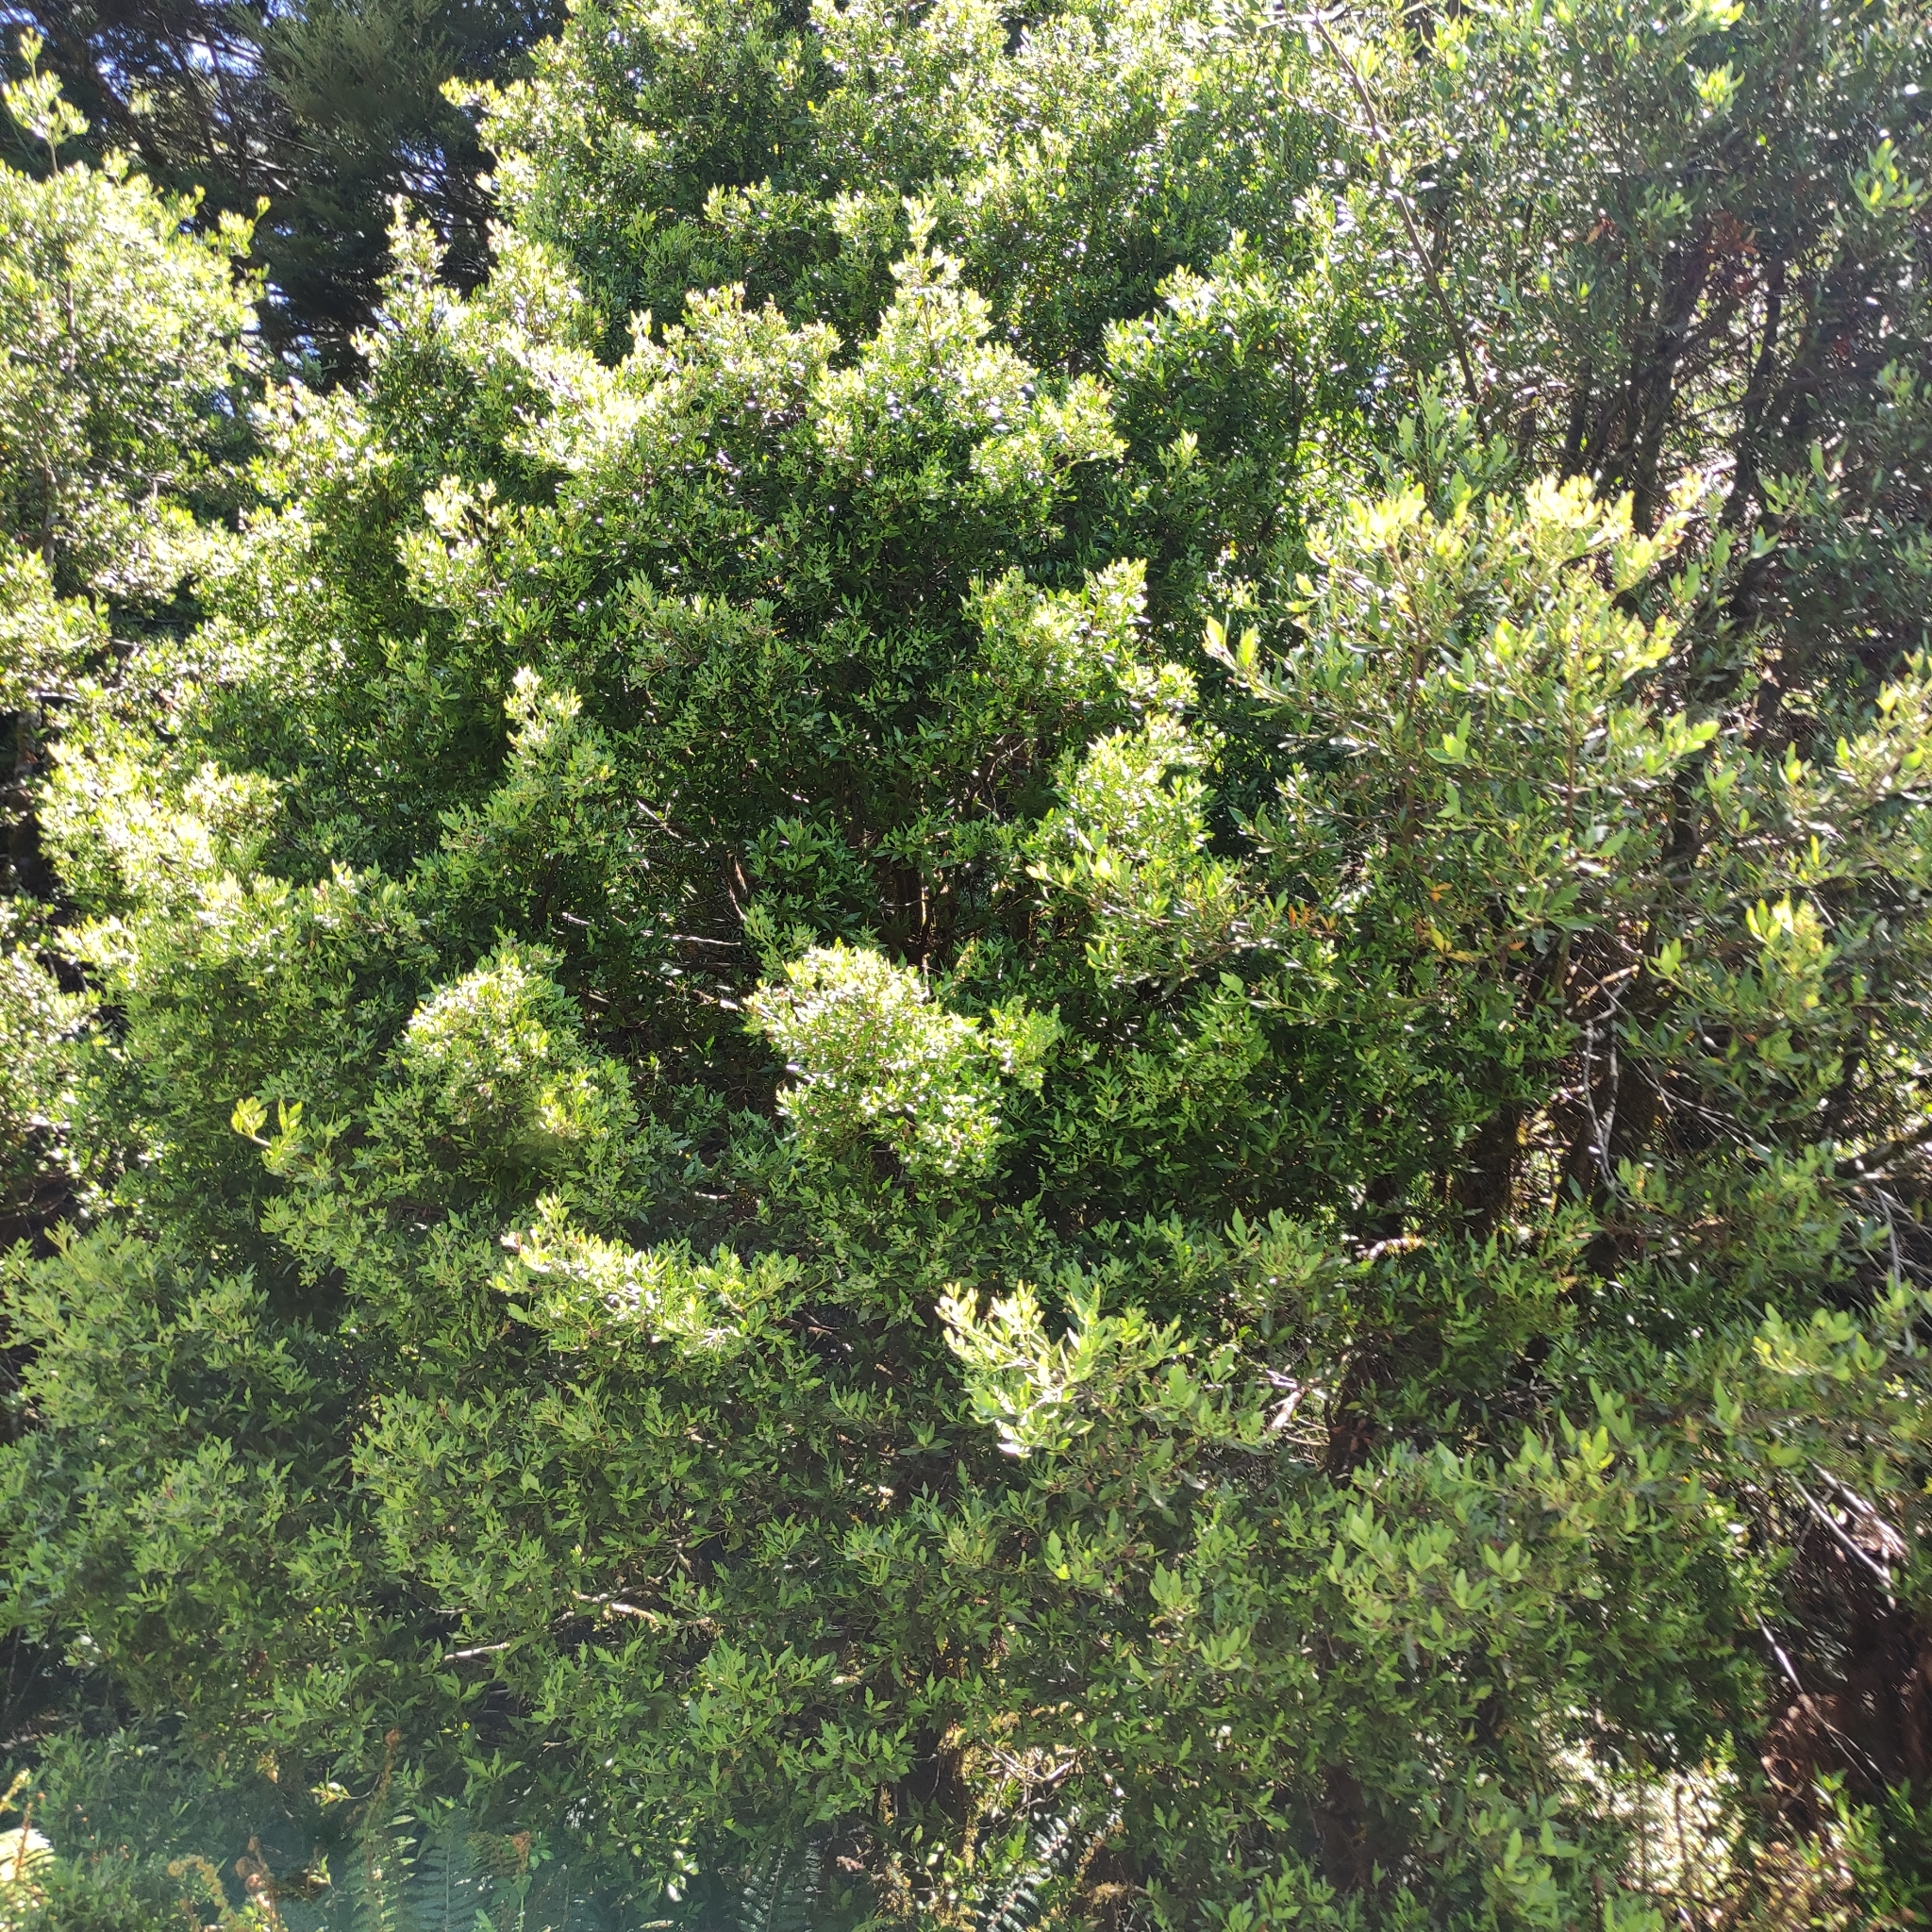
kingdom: Plantae
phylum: Tracheophyta
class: Pinopsida
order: Pinales
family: Phyllocladaceae
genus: Phyllocladus
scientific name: Phyllocladus trichomanoides
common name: Celery pine
